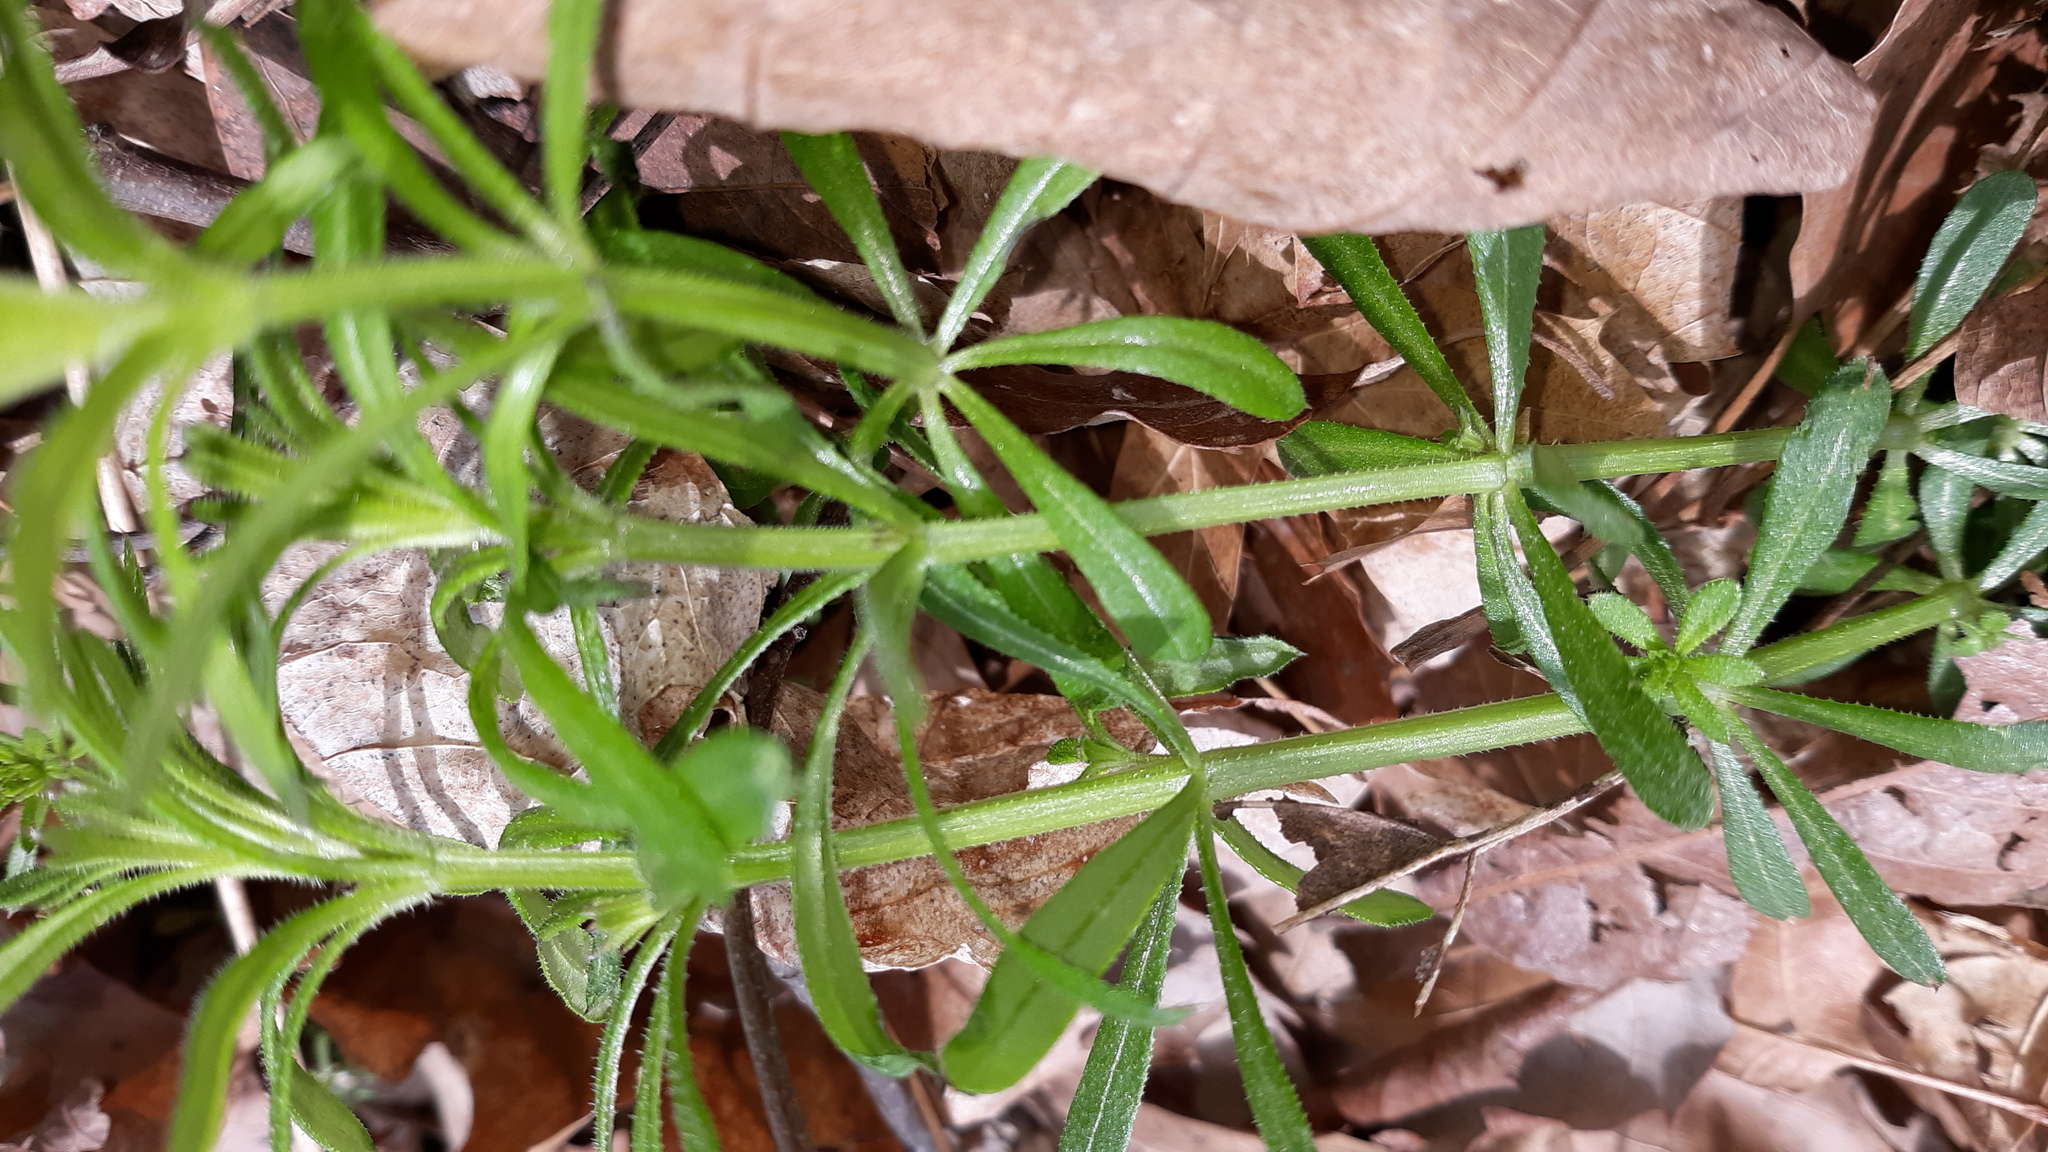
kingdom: Plantae
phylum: Tracheophyta
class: Magnoliopsida
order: Gentianales
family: Rubiaceae
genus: Galium
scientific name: Galium aparine
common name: Cleavers
